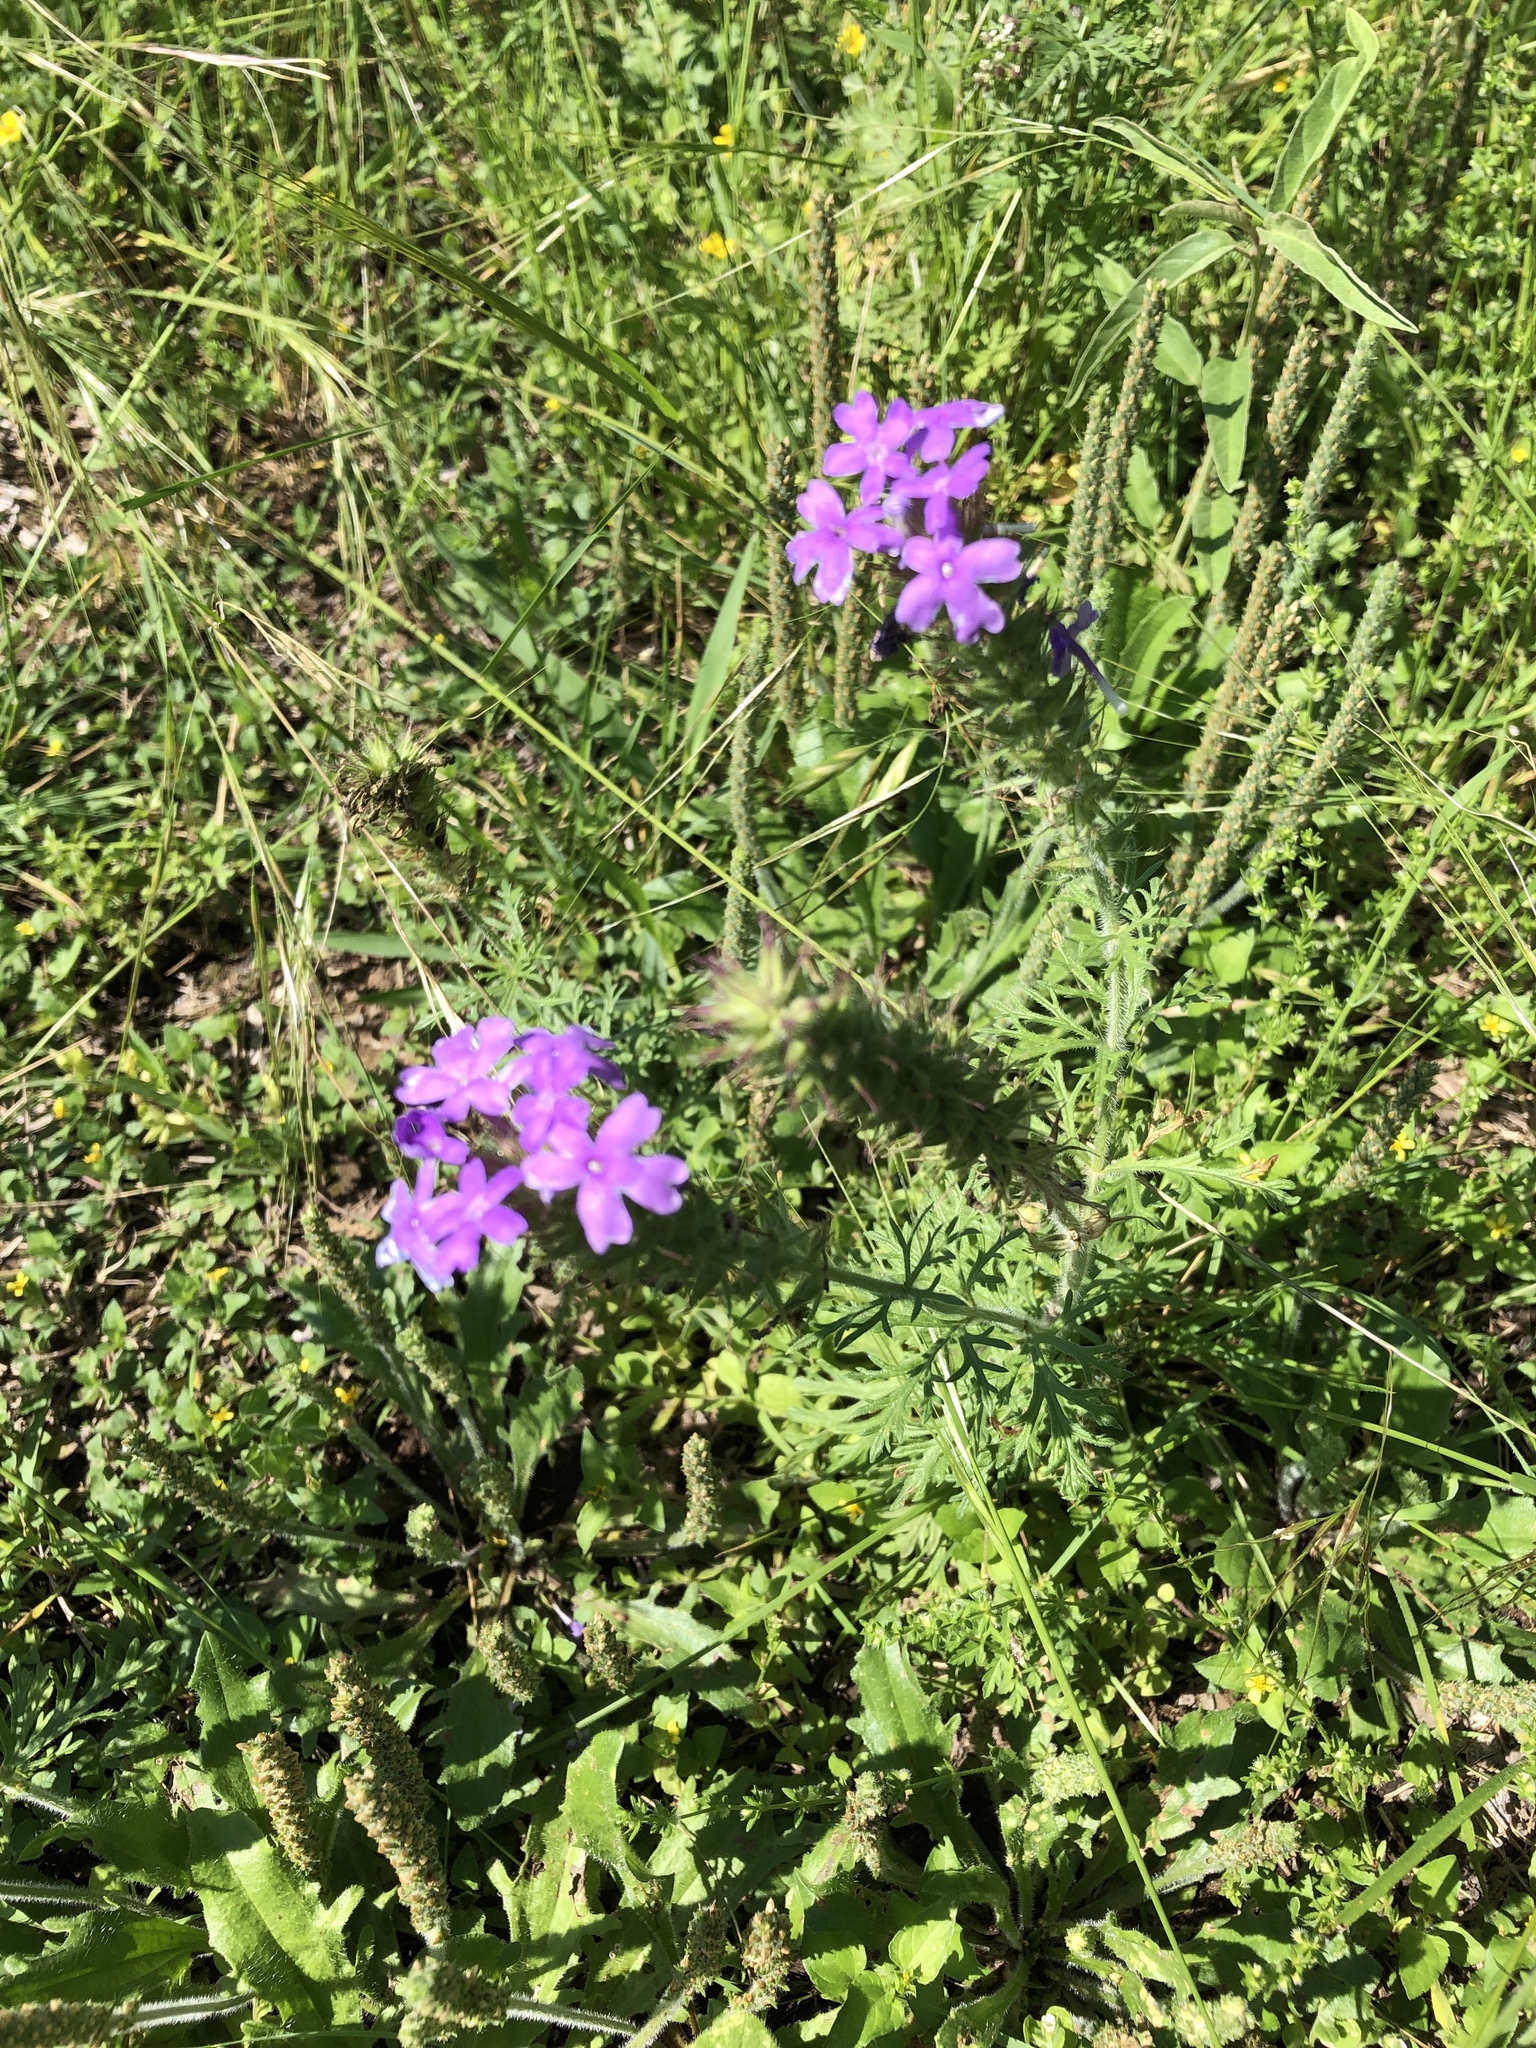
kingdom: Plantae
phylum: Tracheophyta
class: Magnoliopsida
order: Lamiales
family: Verbenaceae
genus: Verbena
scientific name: Verbena bipinnatifida
